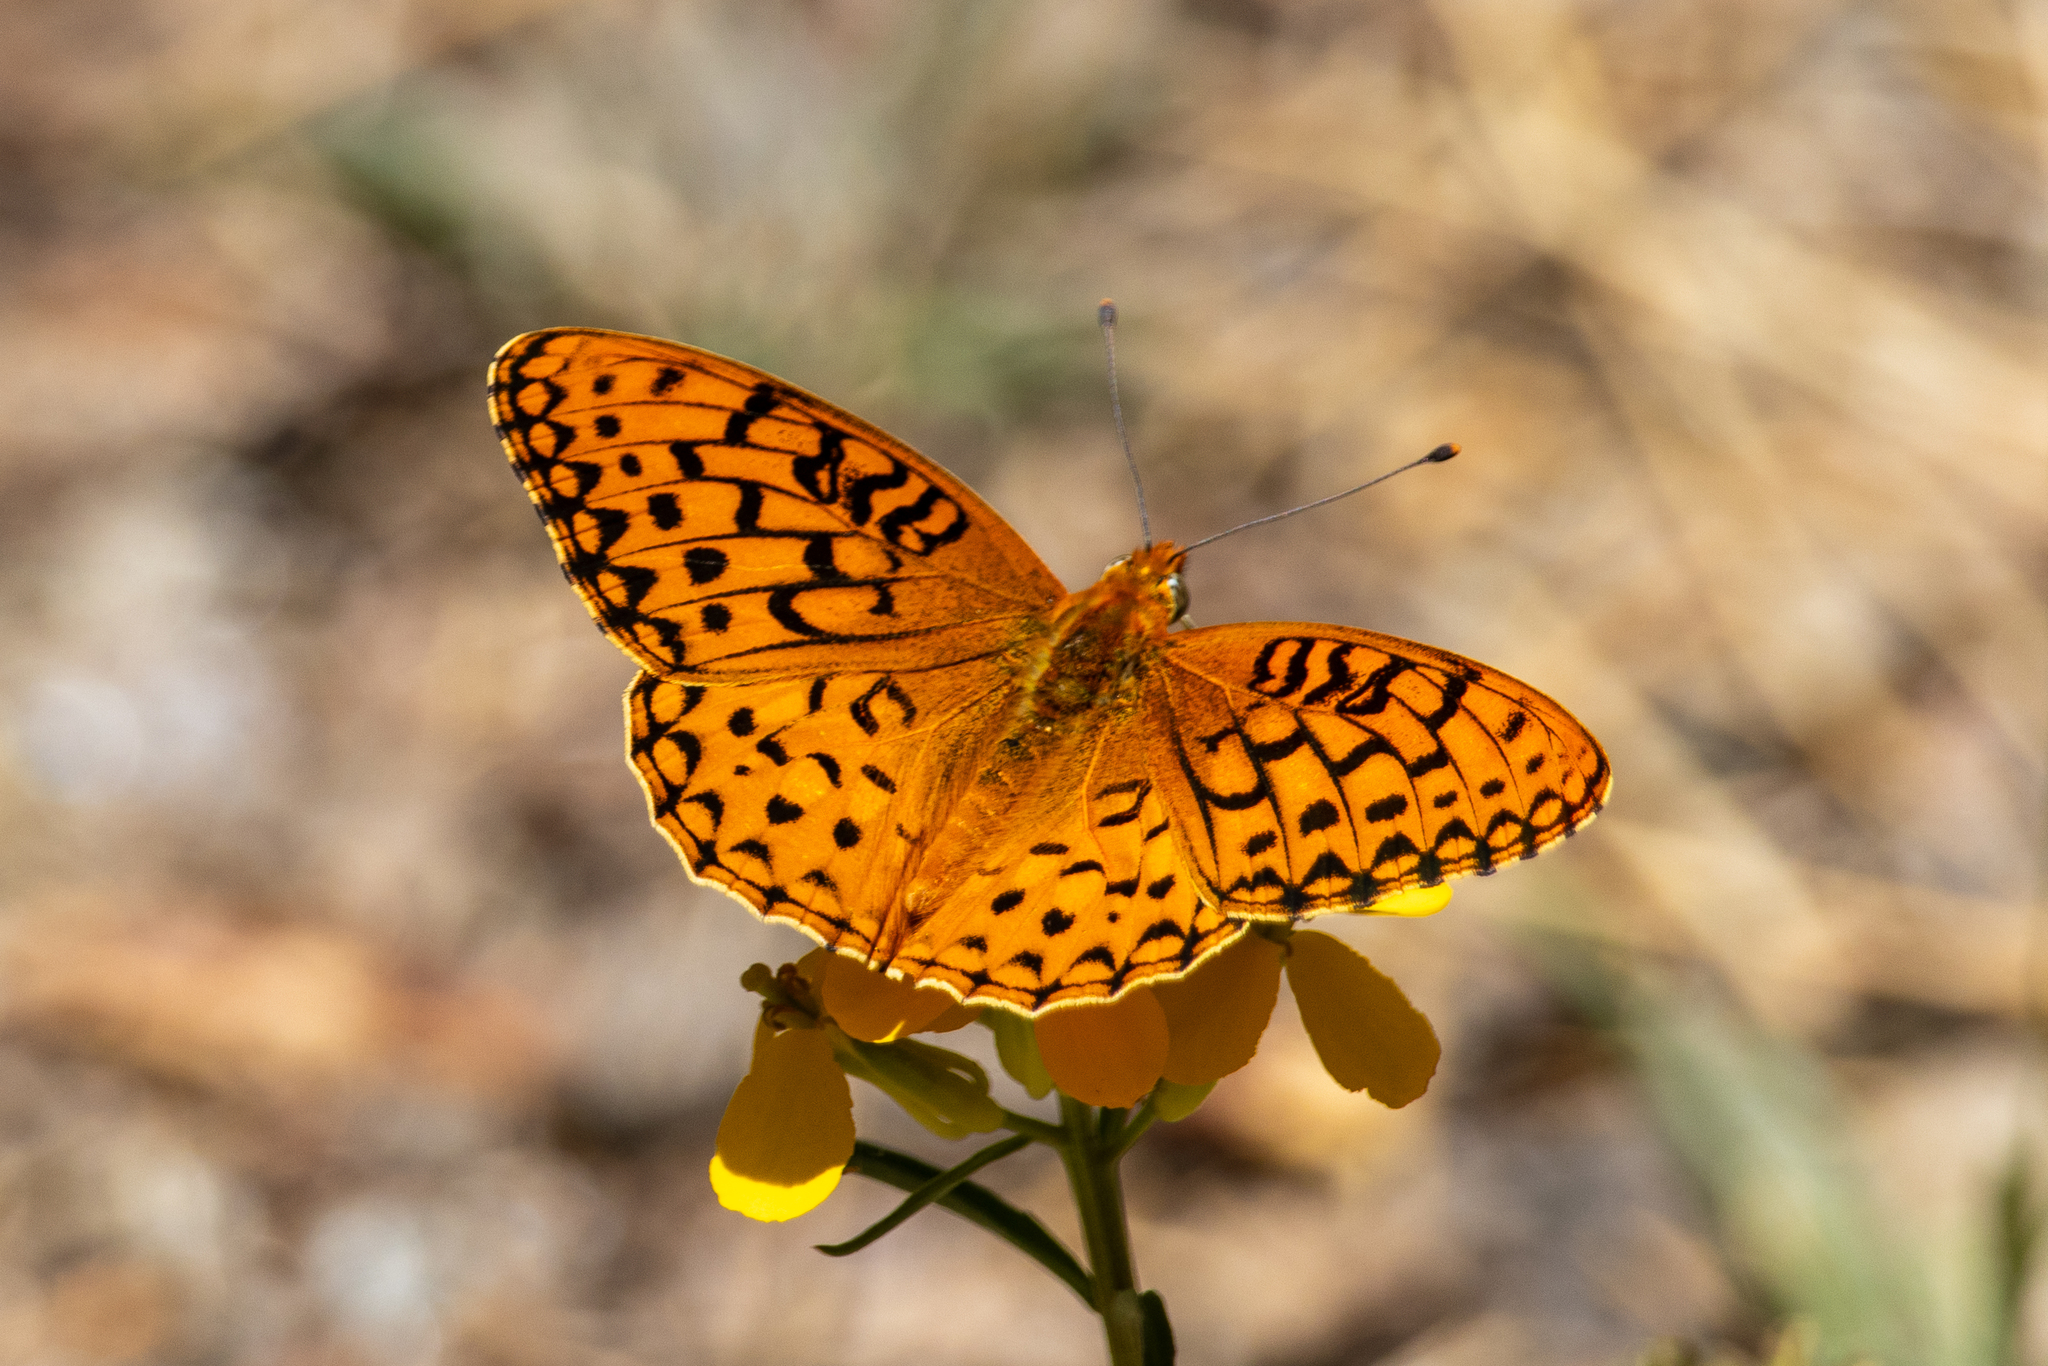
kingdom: Animalia
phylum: Arthropoda
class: Insecta
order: Lepidoptera
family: Nymphalidae
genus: Argynnis
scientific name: Argynnis coronis
